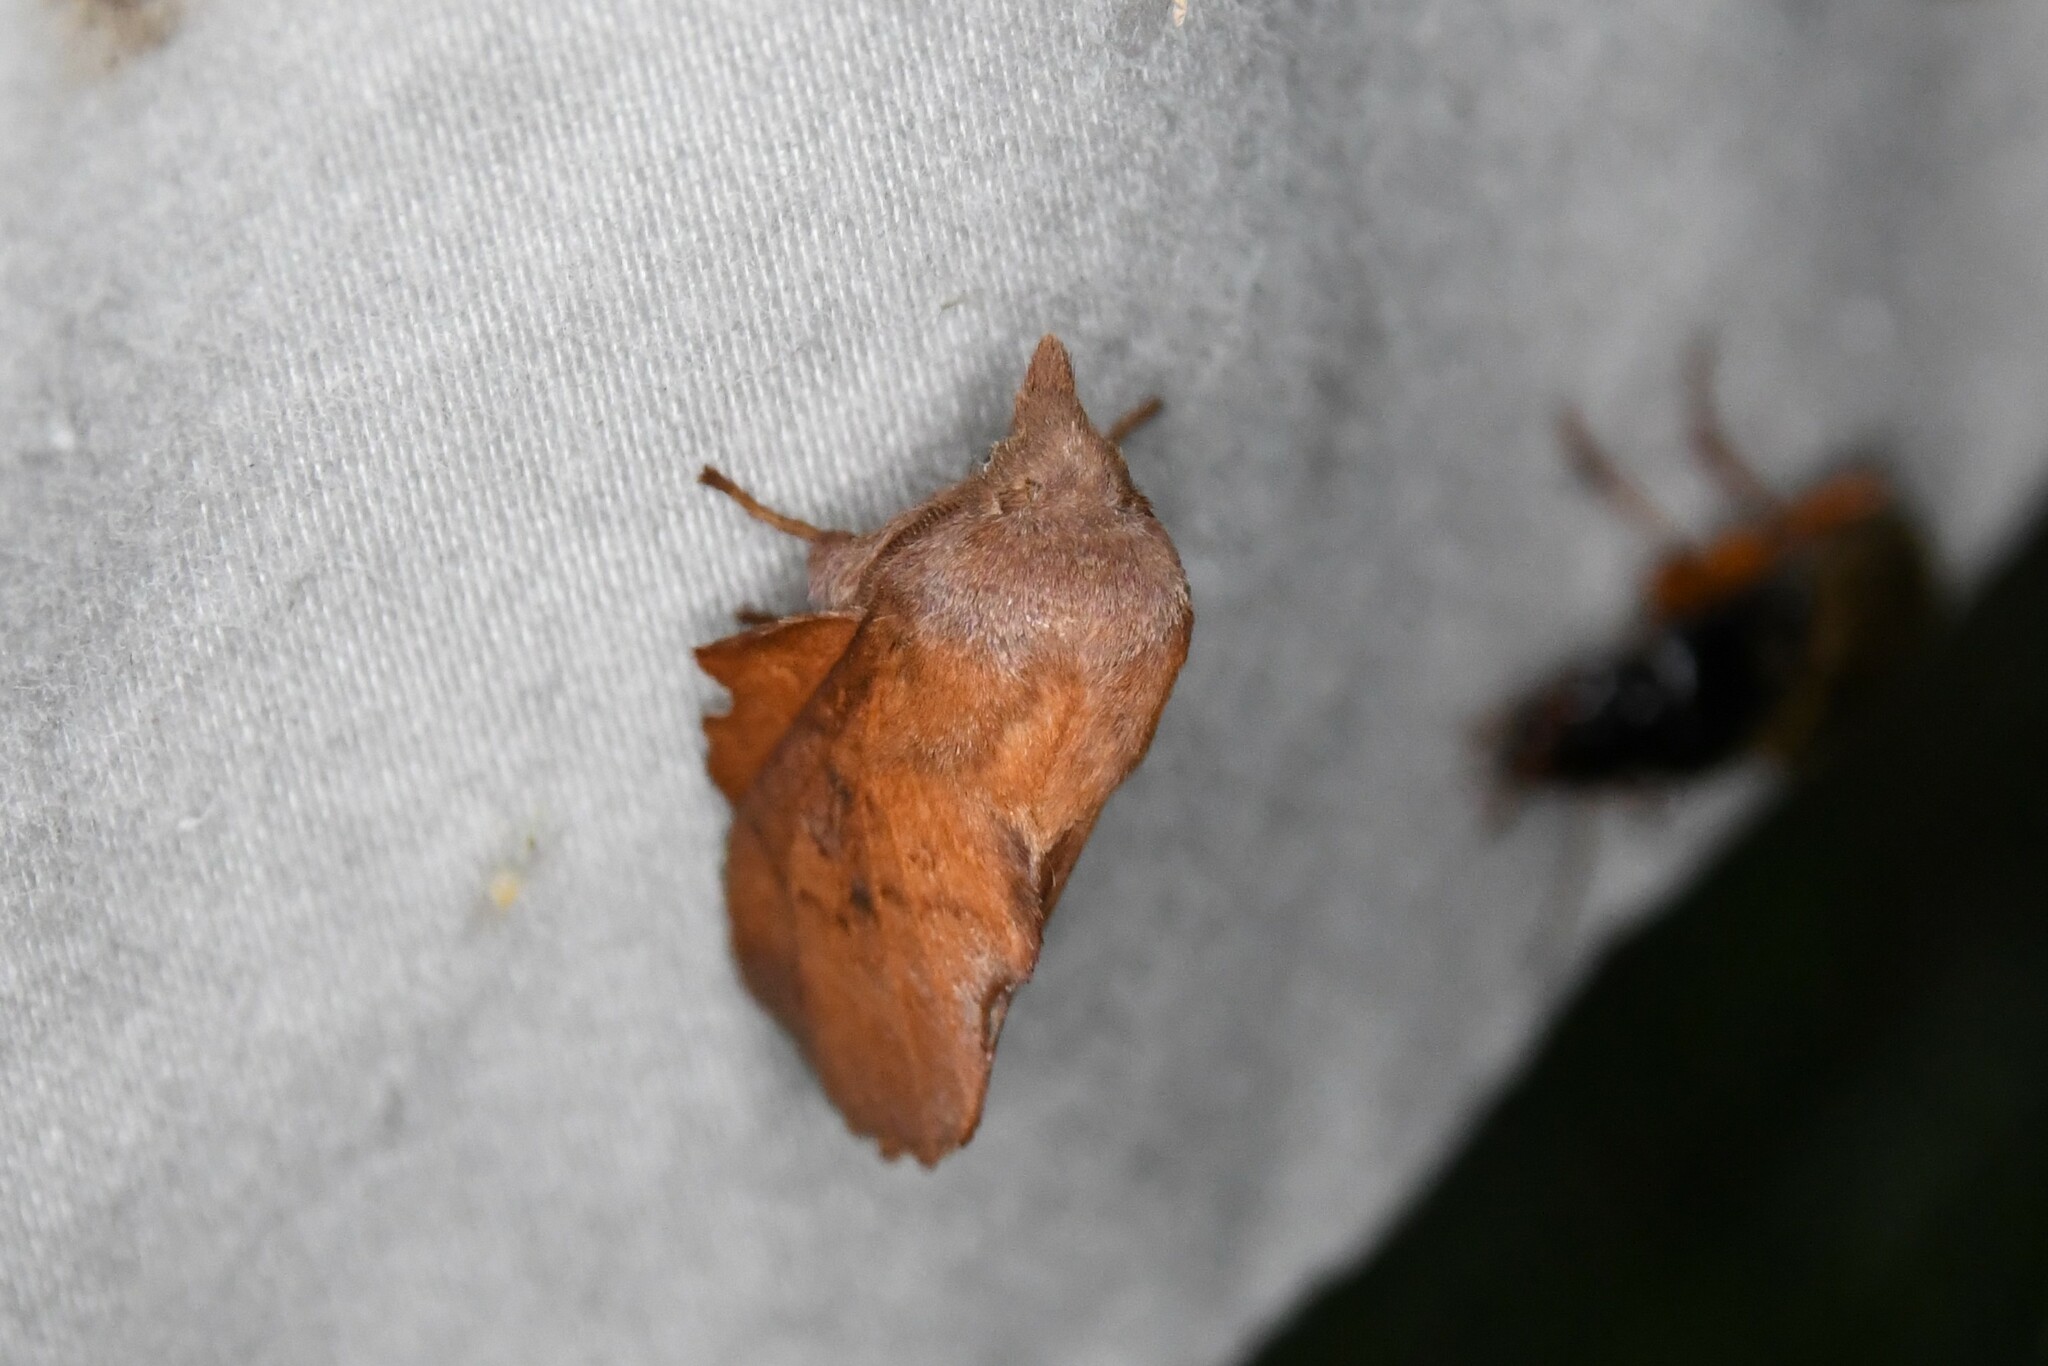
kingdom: Animalia
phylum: Arthropoda
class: Insecta
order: Lepidoptera
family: Lasiocampidae
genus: Phyllodesma
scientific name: Phyllodesma americana
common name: American lappet moth
